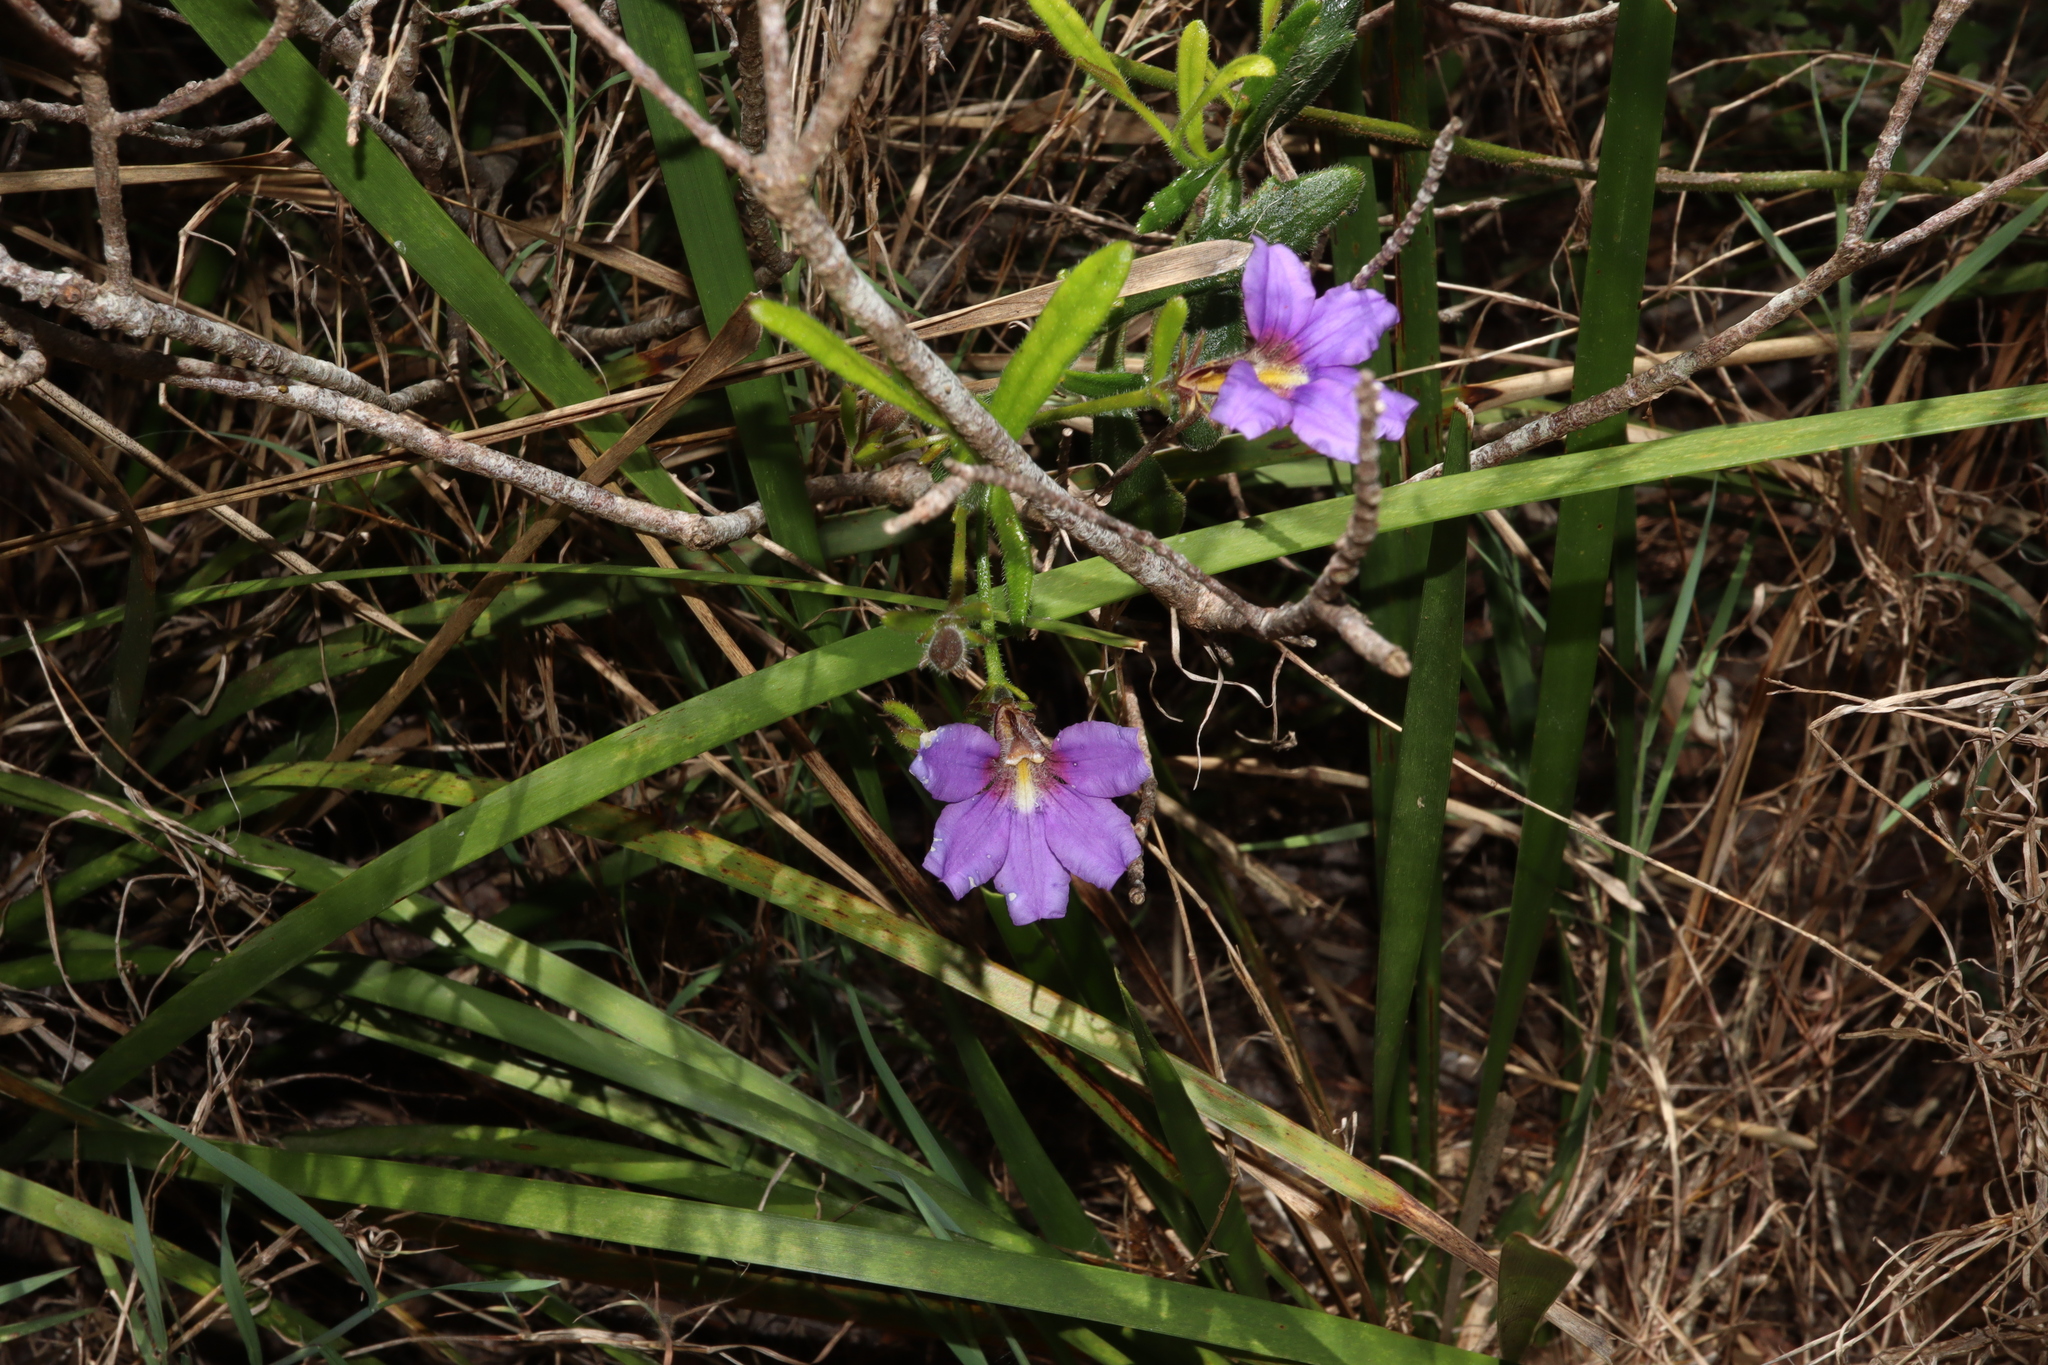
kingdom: Plantae
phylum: Tracheophyta
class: Magnoliopsida
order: Asterales
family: Goodeniaceae
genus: Scaevola
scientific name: Scaevola ramosissima
